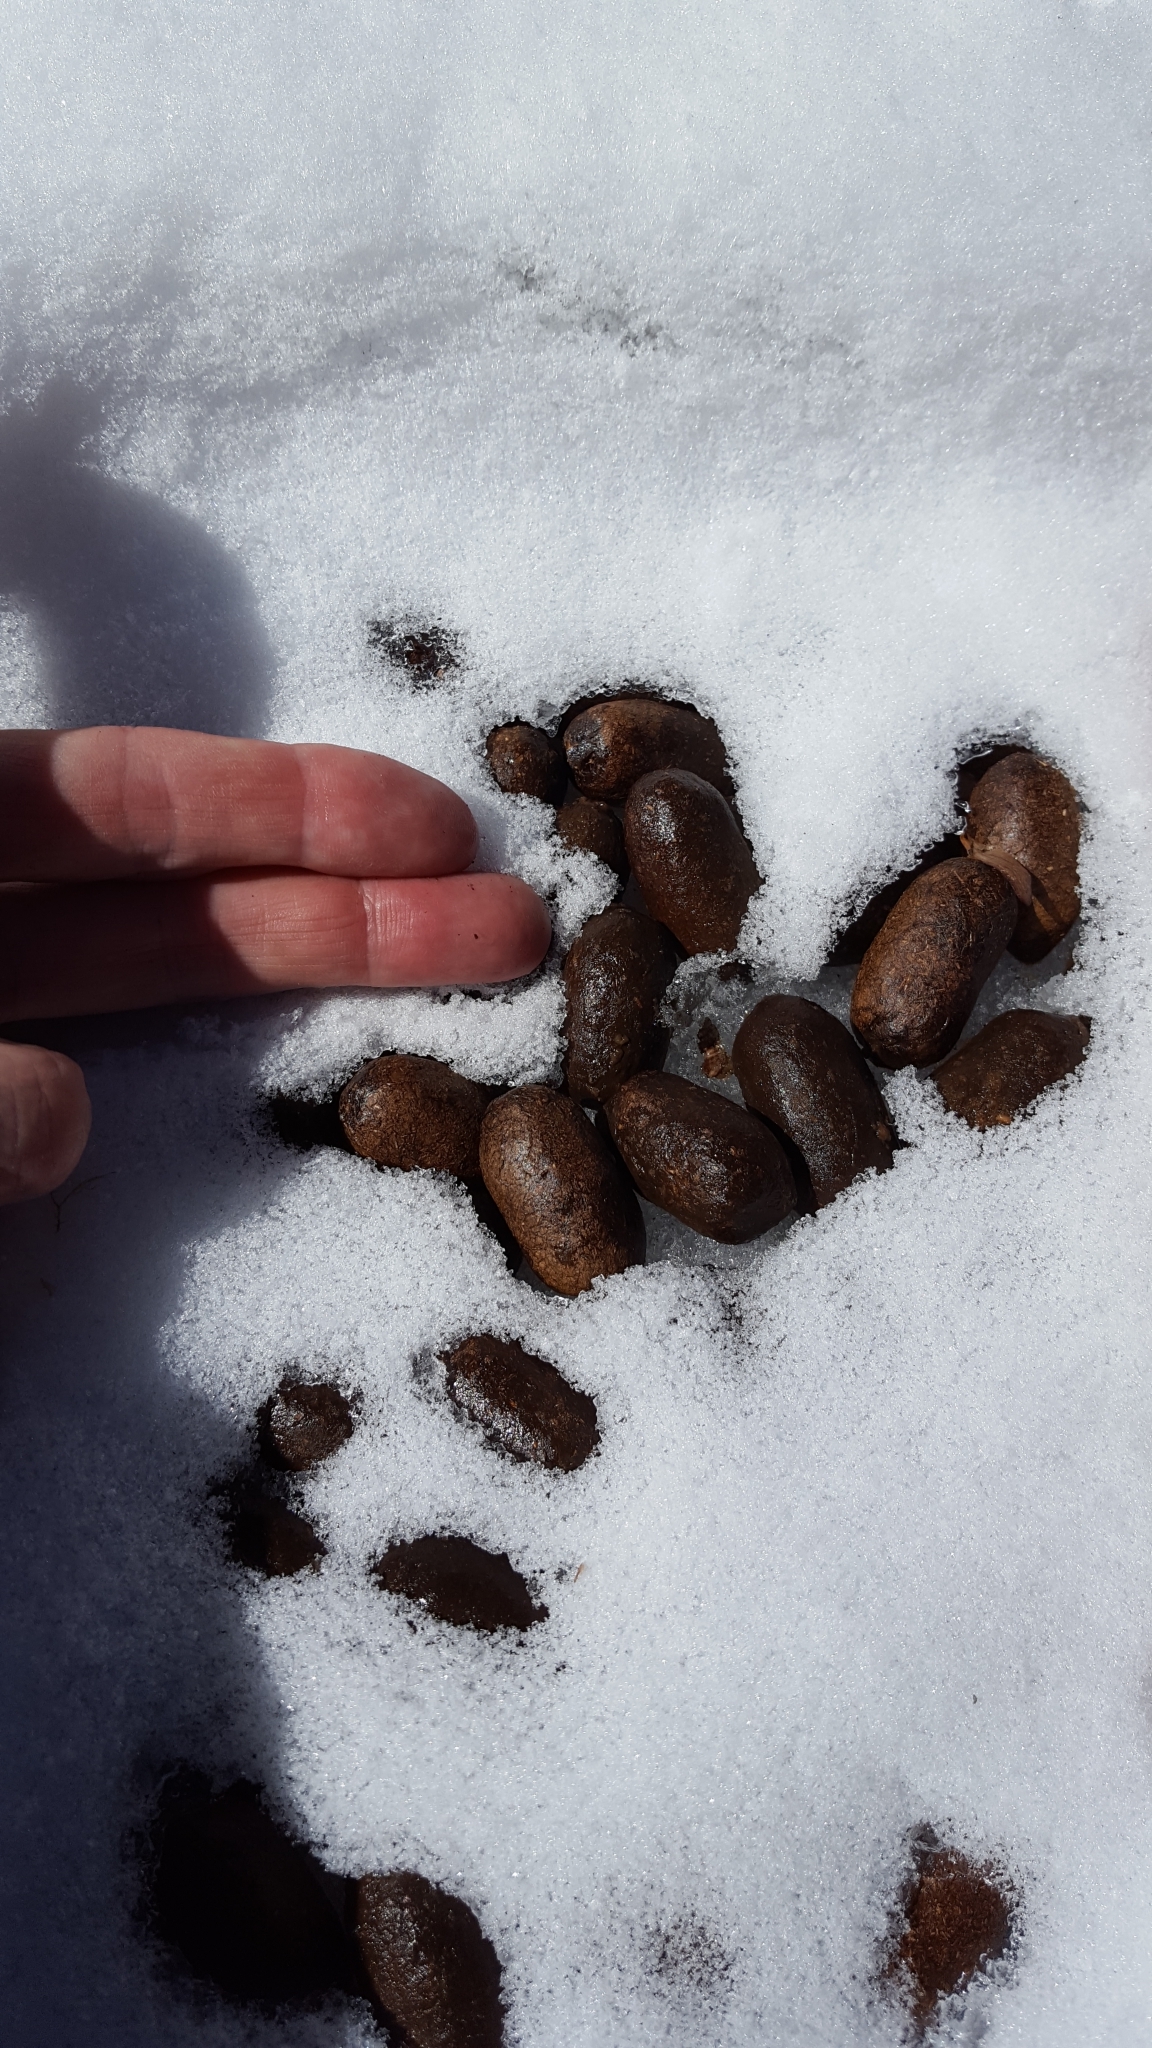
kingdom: Animalia
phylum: Chordata
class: Mammalia
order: Artiodactyla
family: Cervidae
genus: Alces
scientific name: Alces americanus
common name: Moose
